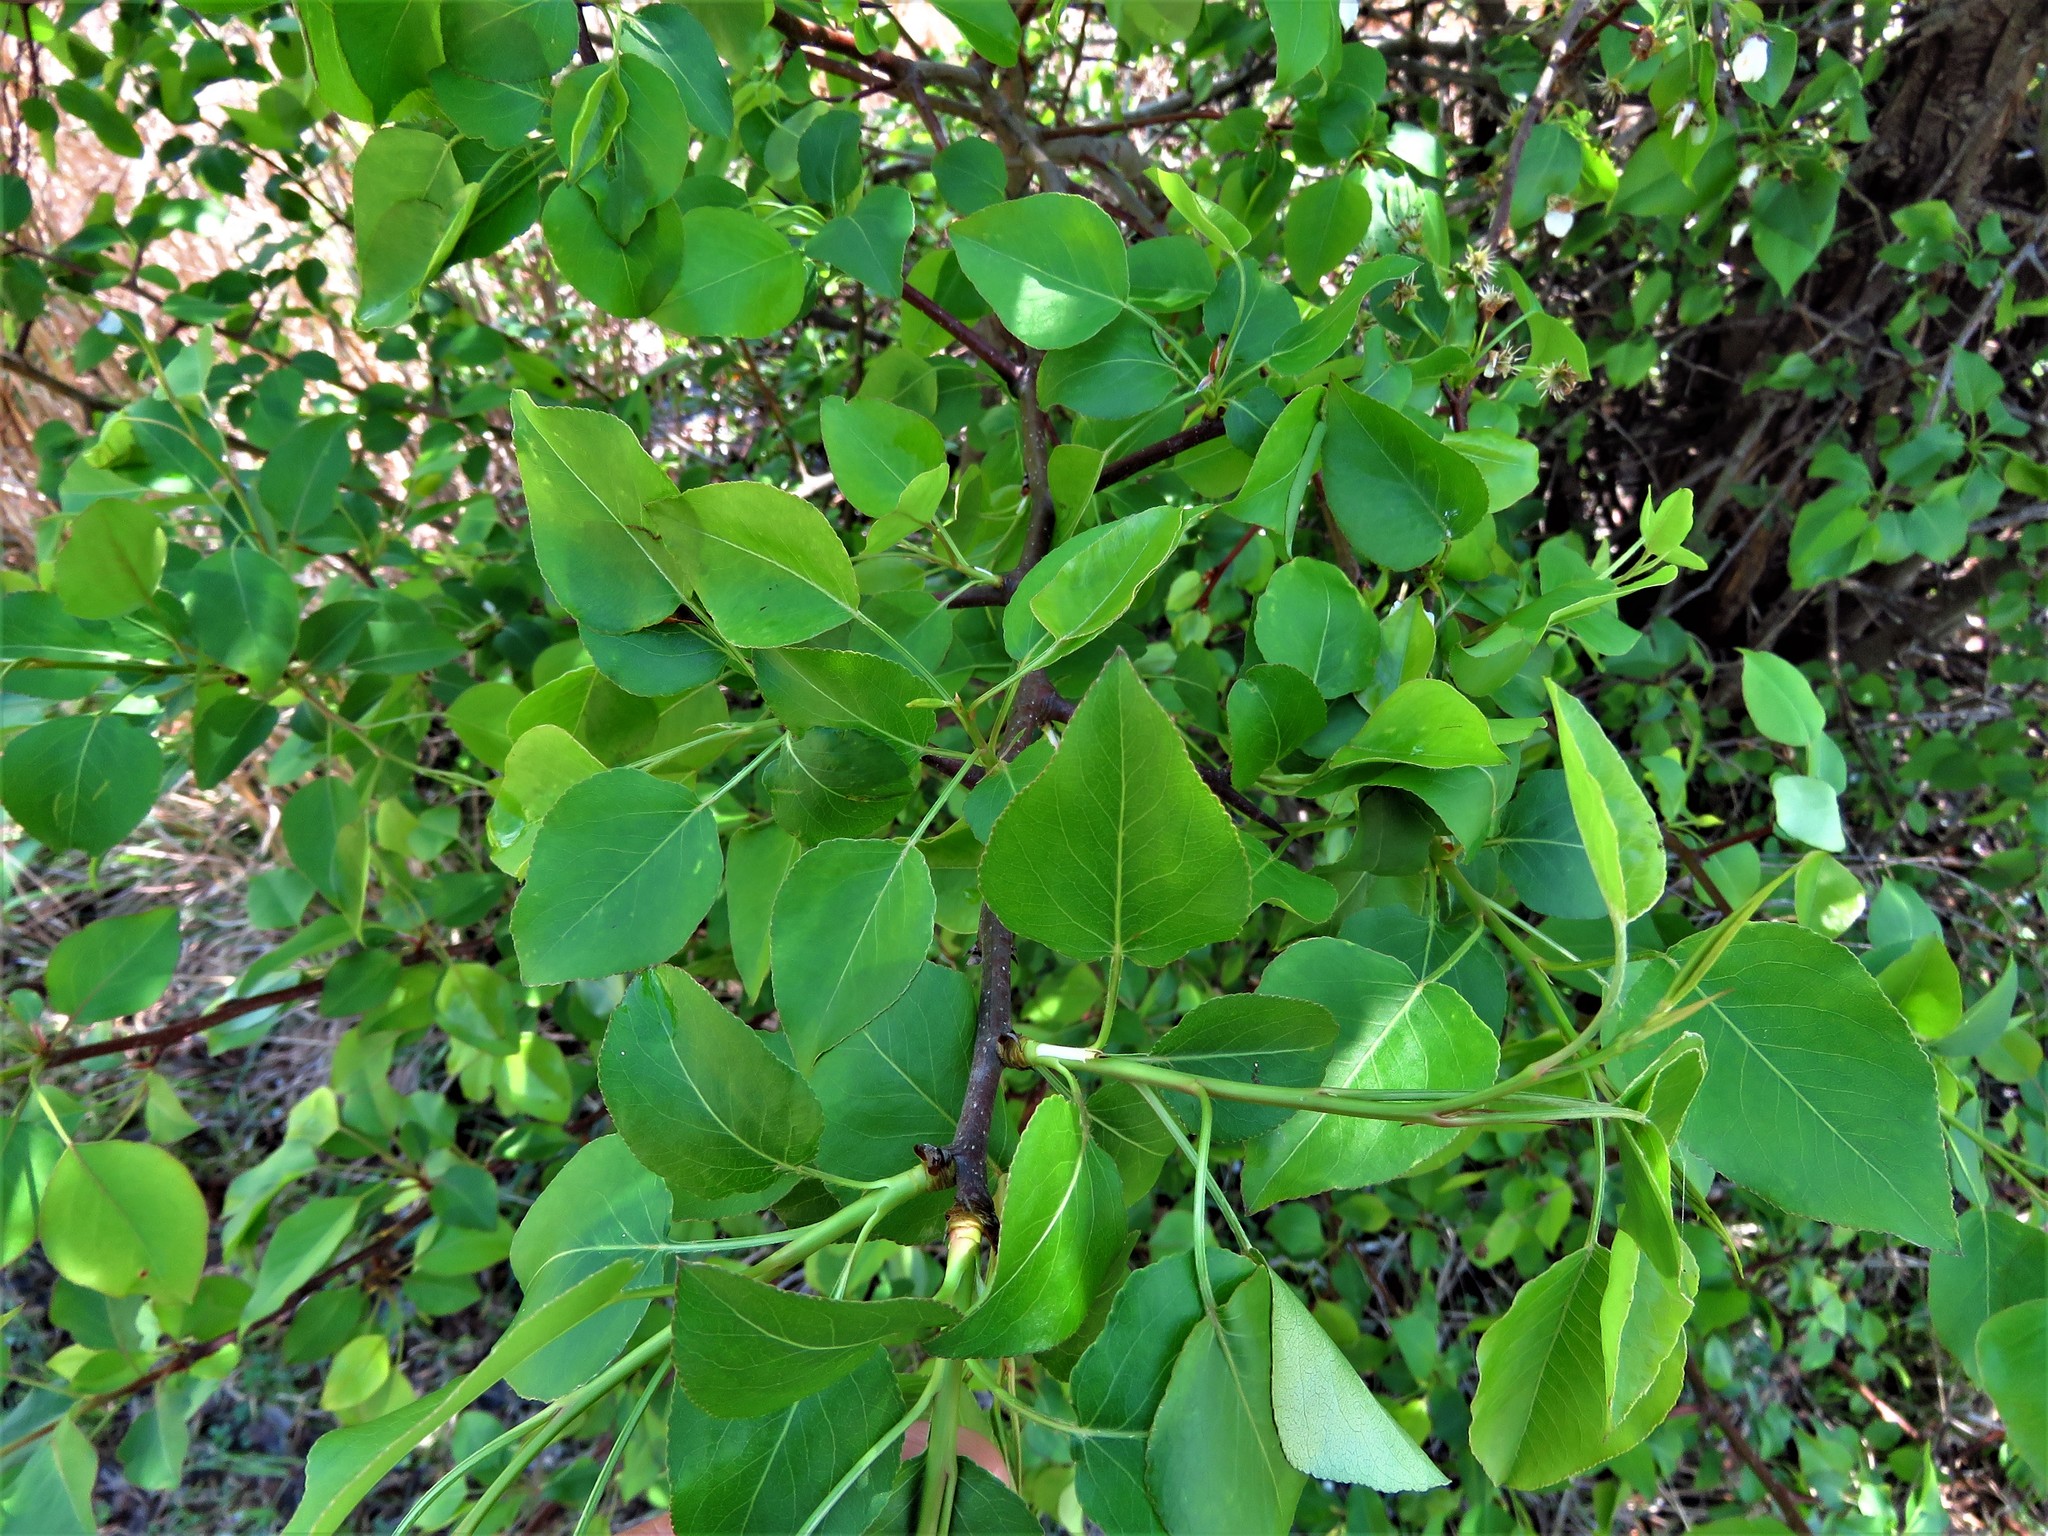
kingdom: Plantae
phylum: Tracheophyta
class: Magnoliopsida
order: Rosales
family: Rosaceae
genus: Pyrus
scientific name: Pyrus calleryana
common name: Callery pear
